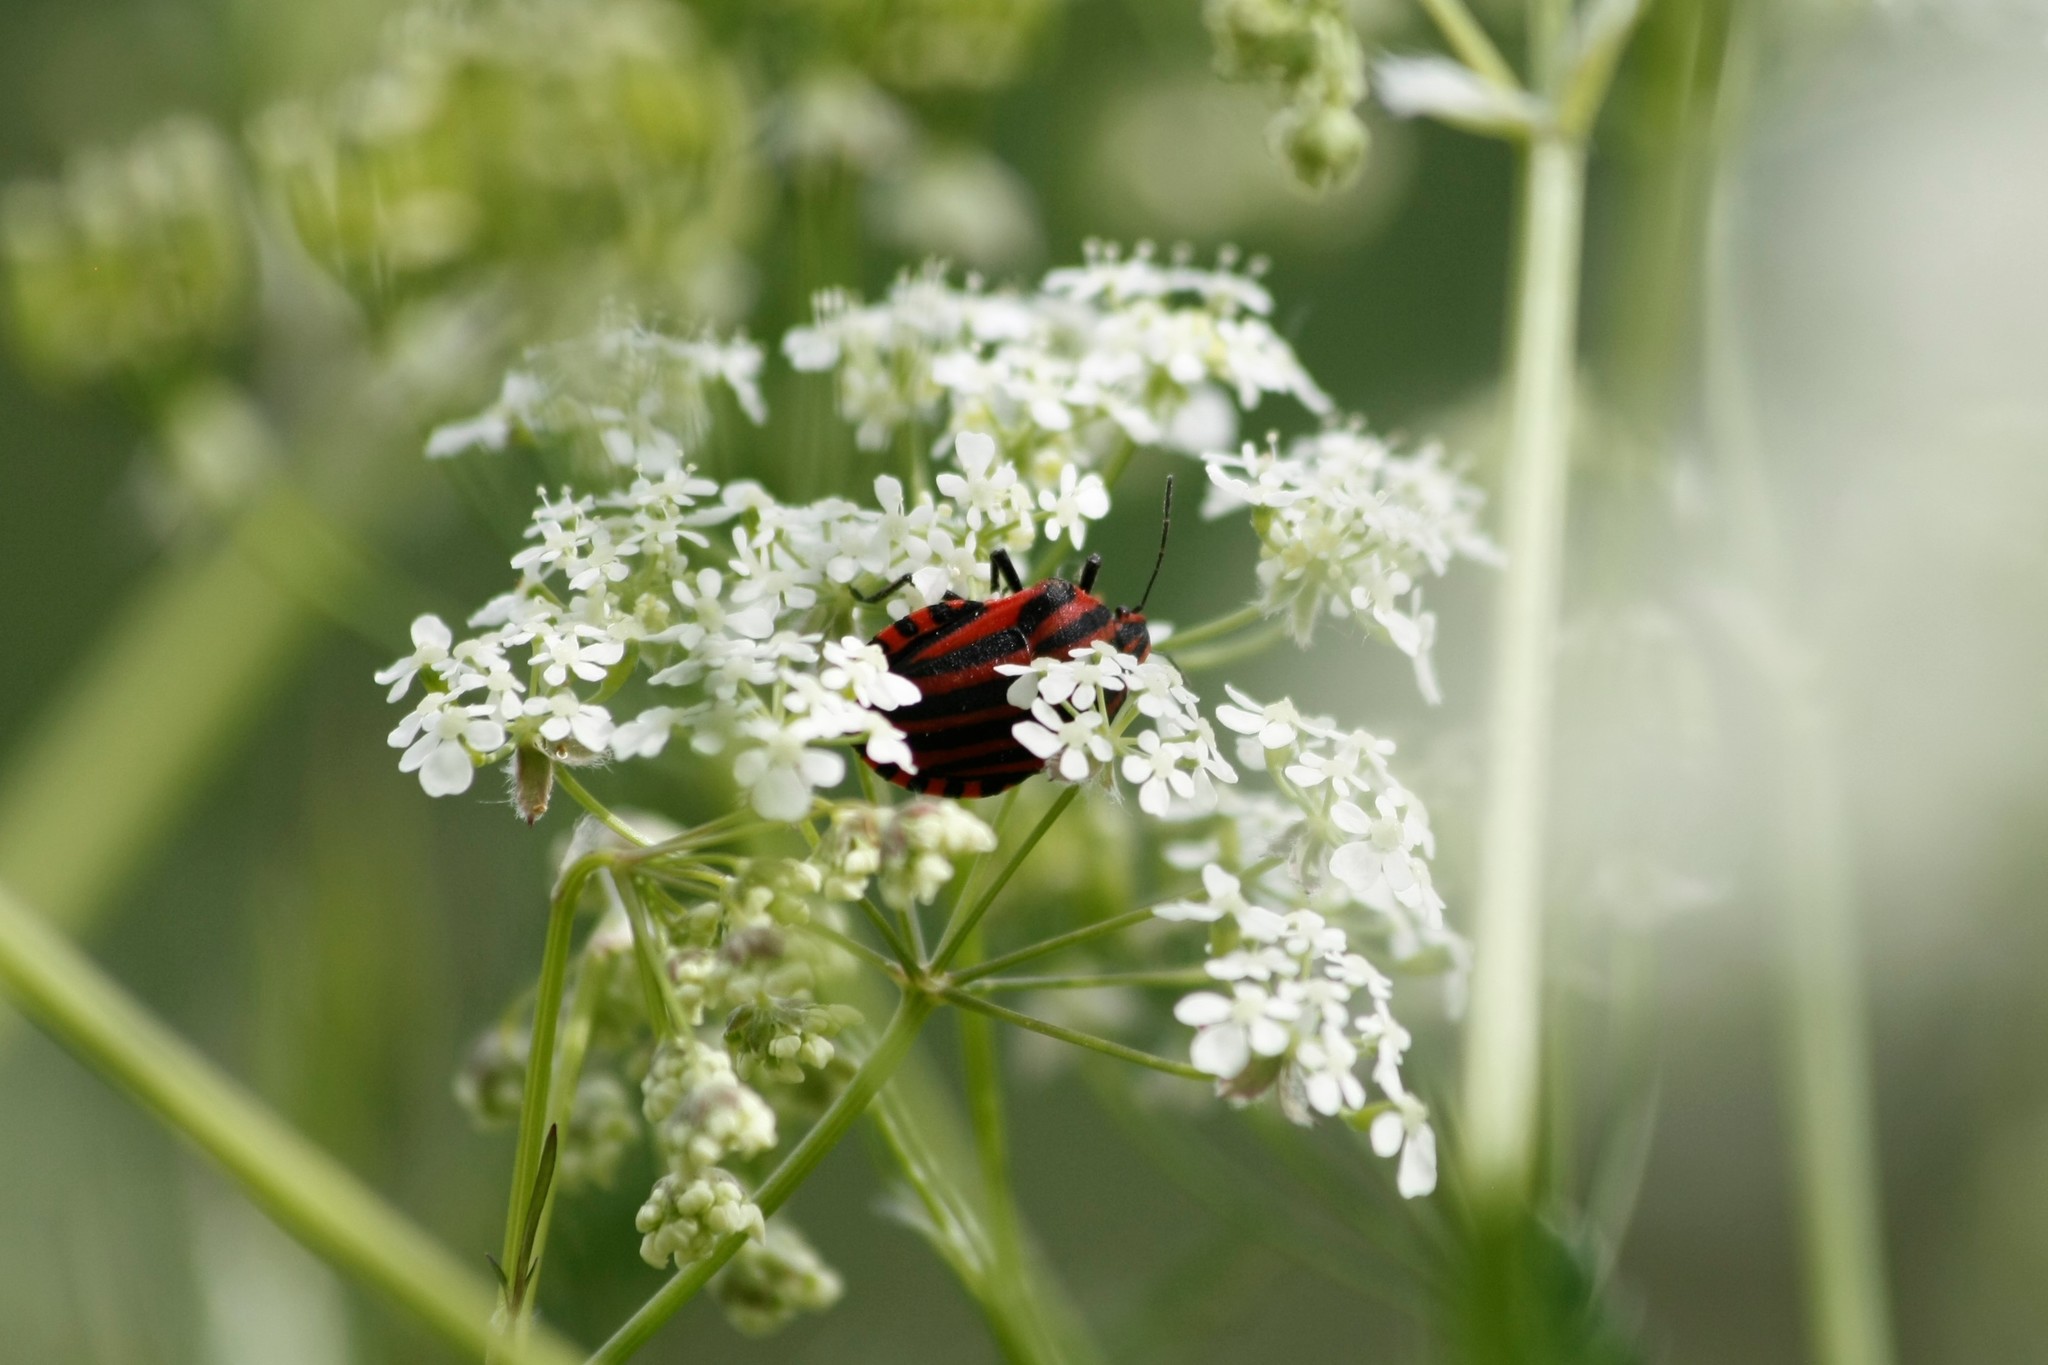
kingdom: Animalia
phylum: Arthropoda
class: Insecta
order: Hemiptera
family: Pentatomidae
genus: Graphosoma
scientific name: Graphosoma italicum
